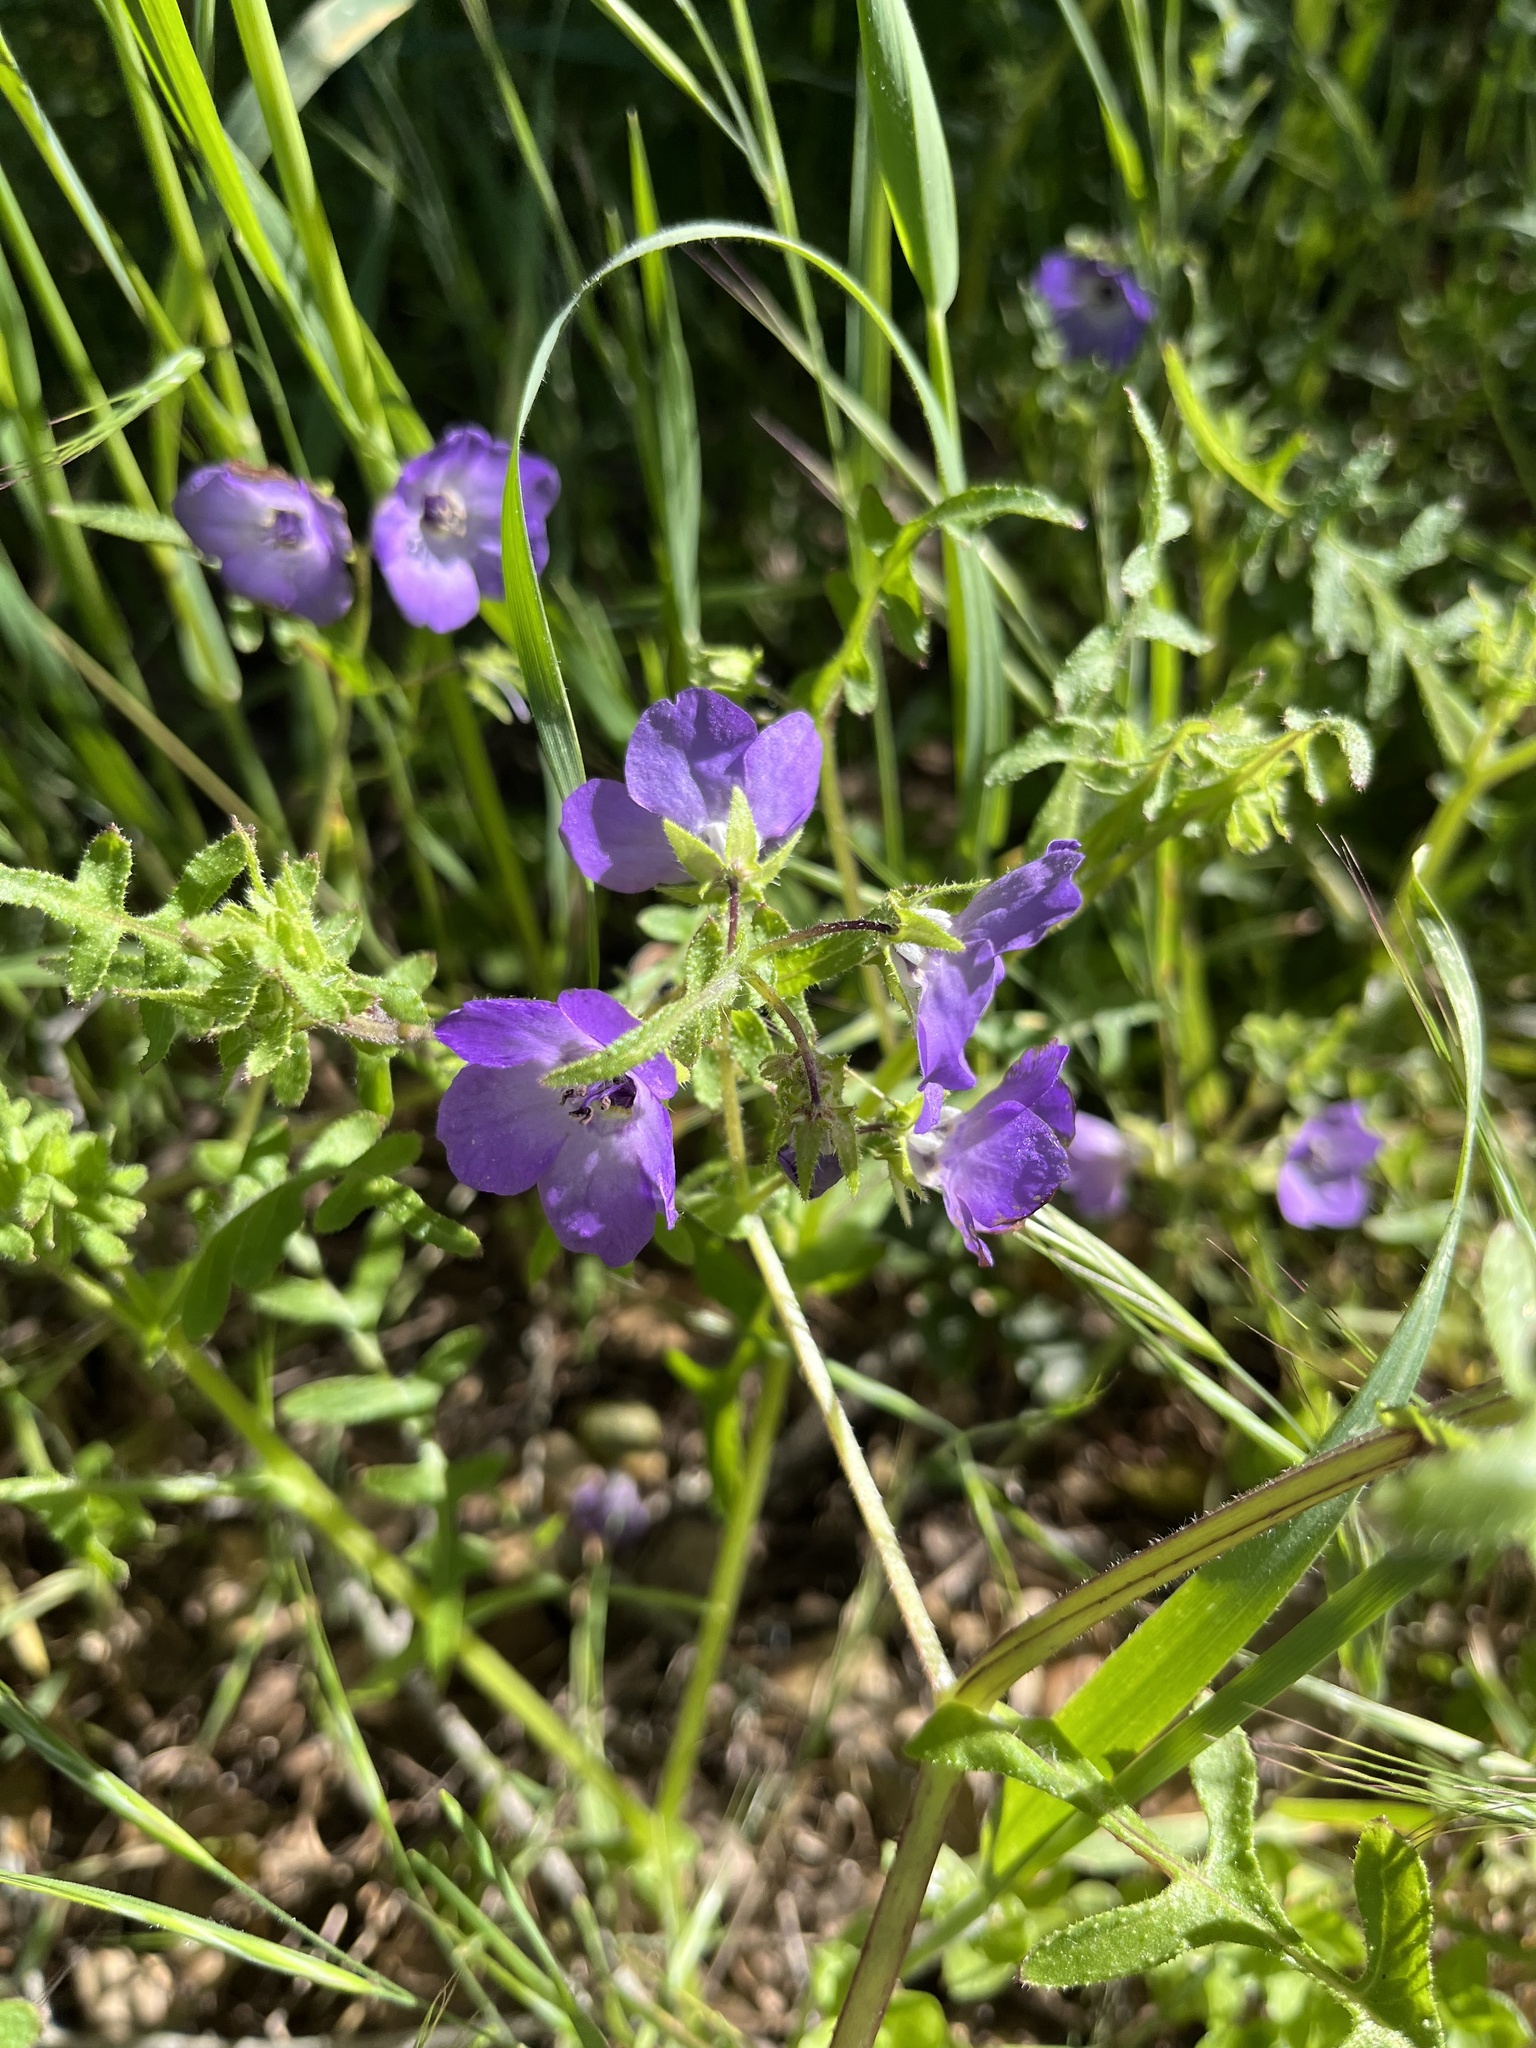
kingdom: Plantae
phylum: Tracheophyta
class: Magnoliopsida
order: Boraginales
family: Hydrophyllaceae
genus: Pholistoma
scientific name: Pholistoma auritum
